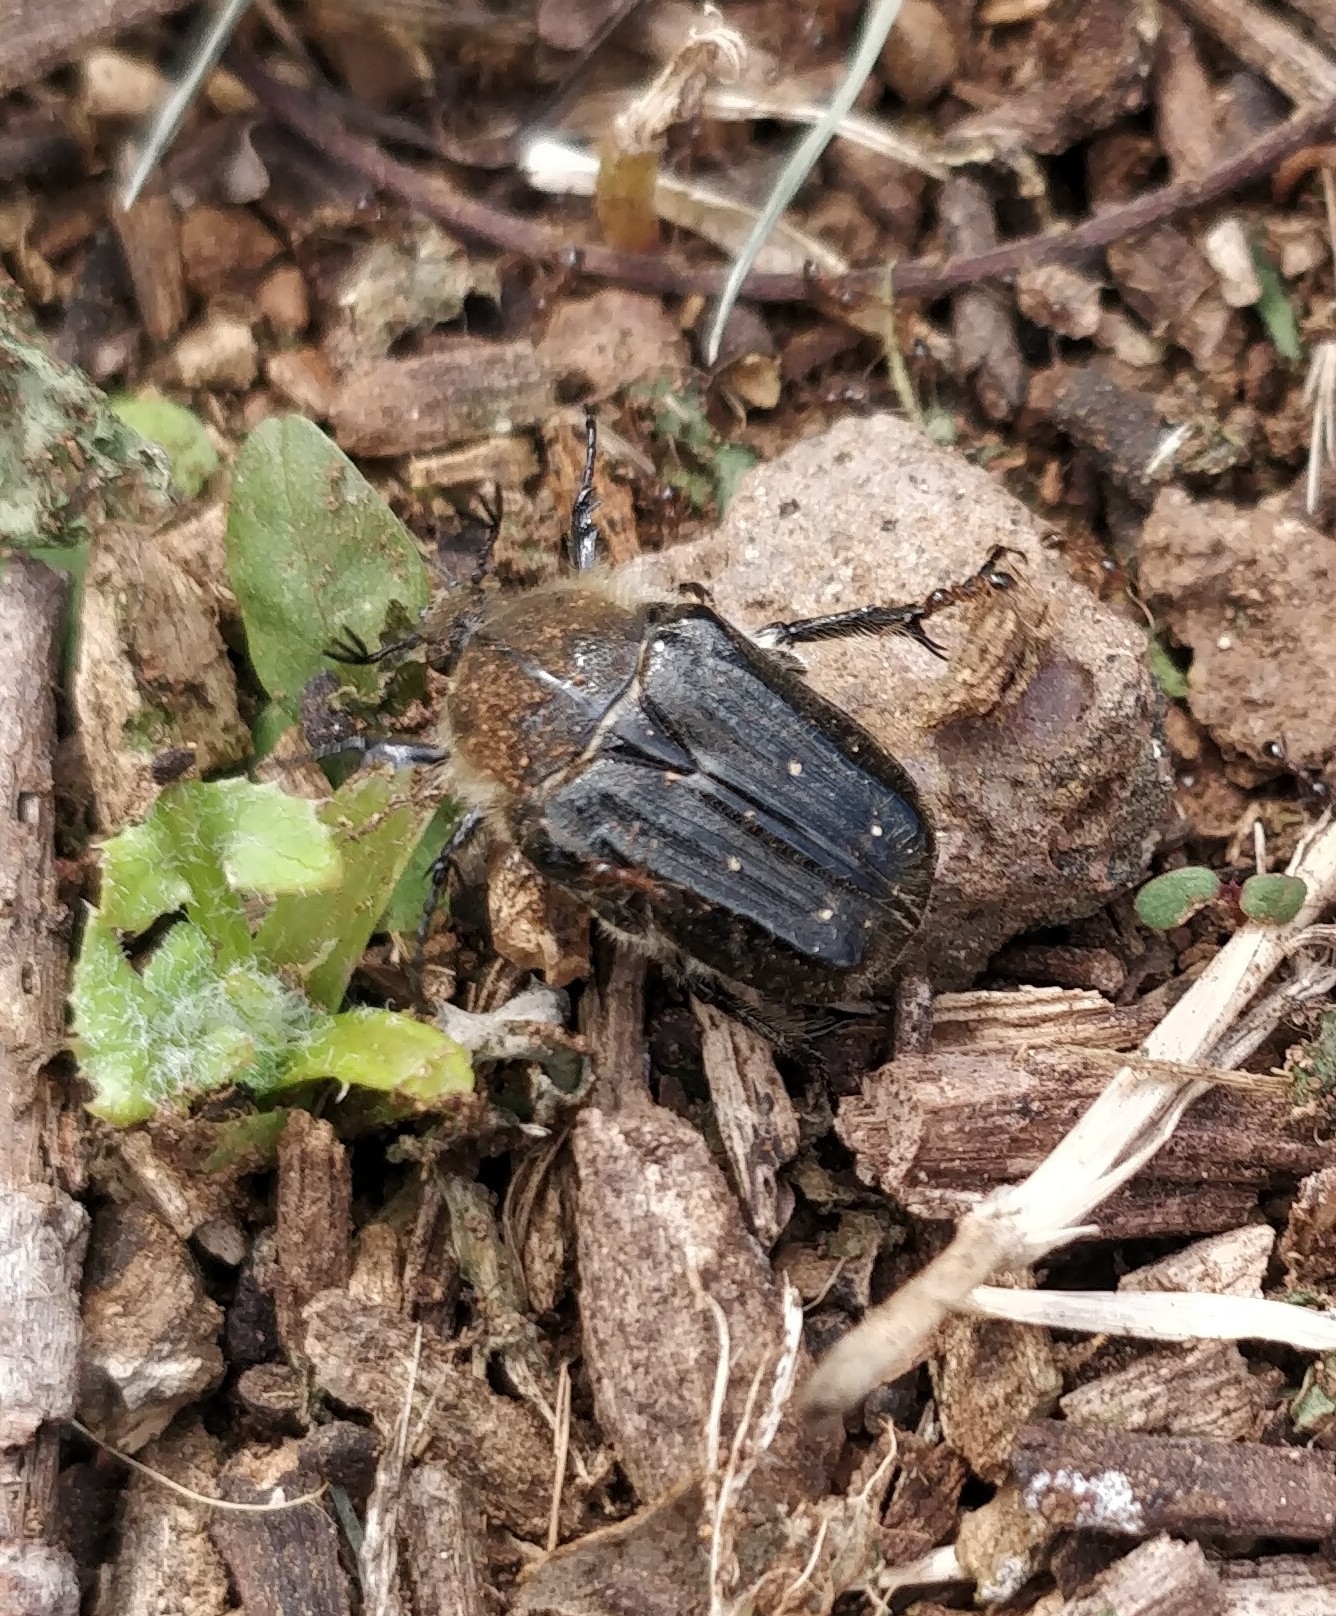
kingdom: Animalia
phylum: Arthropoda
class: Insecta
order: Coleoptera
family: Scarabaeidae
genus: Tropinota
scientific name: Tropinota squalida
